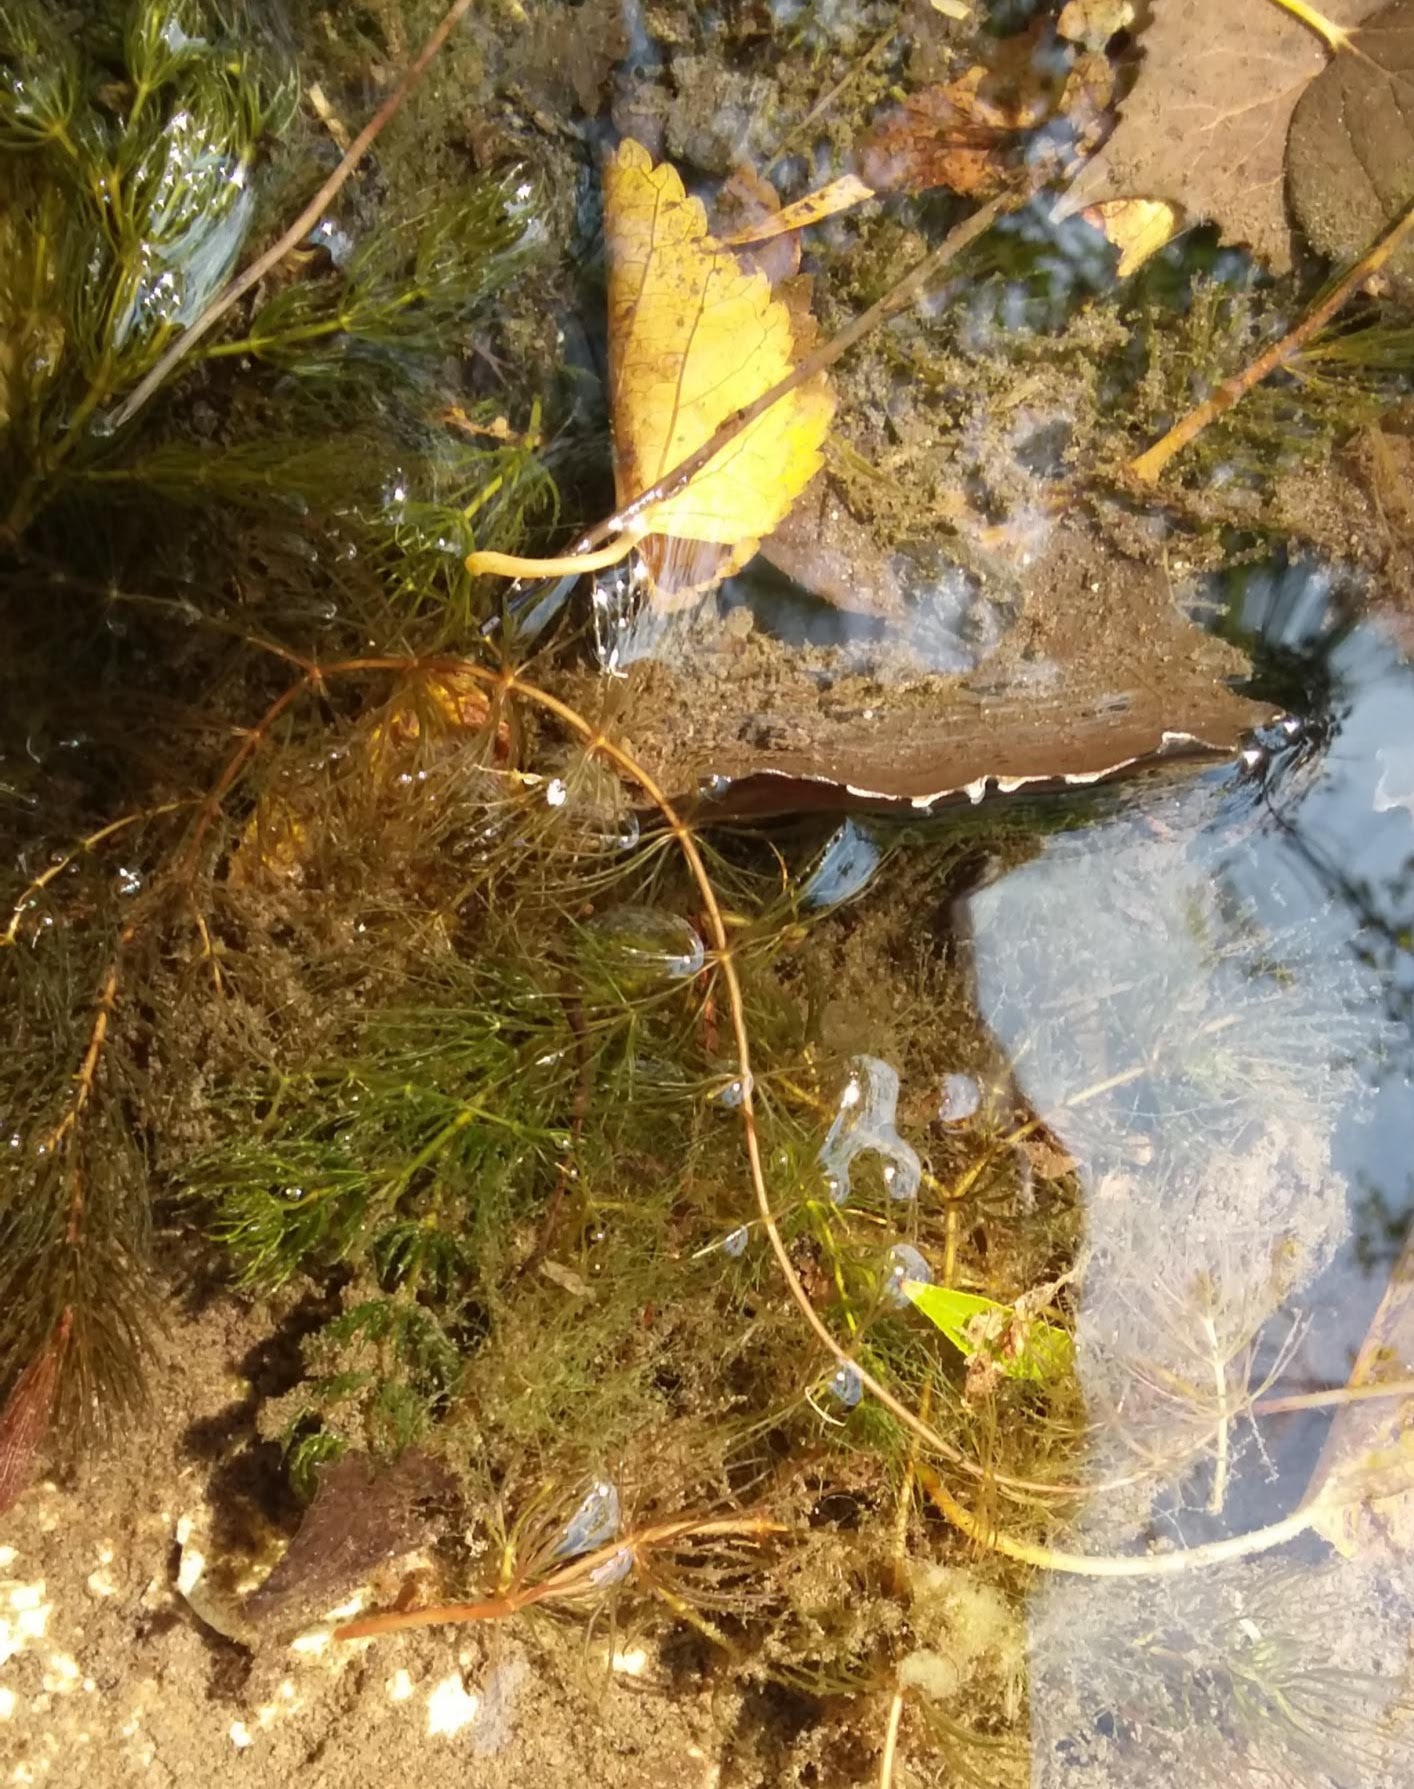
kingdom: Plantae
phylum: Tracheophyta
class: Magnoliopsida
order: Ceratophyllales
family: Ceratophyllaceae
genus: Ceratophyllum
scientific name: Ceratophyllum demersum
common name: Rigid hornwort
